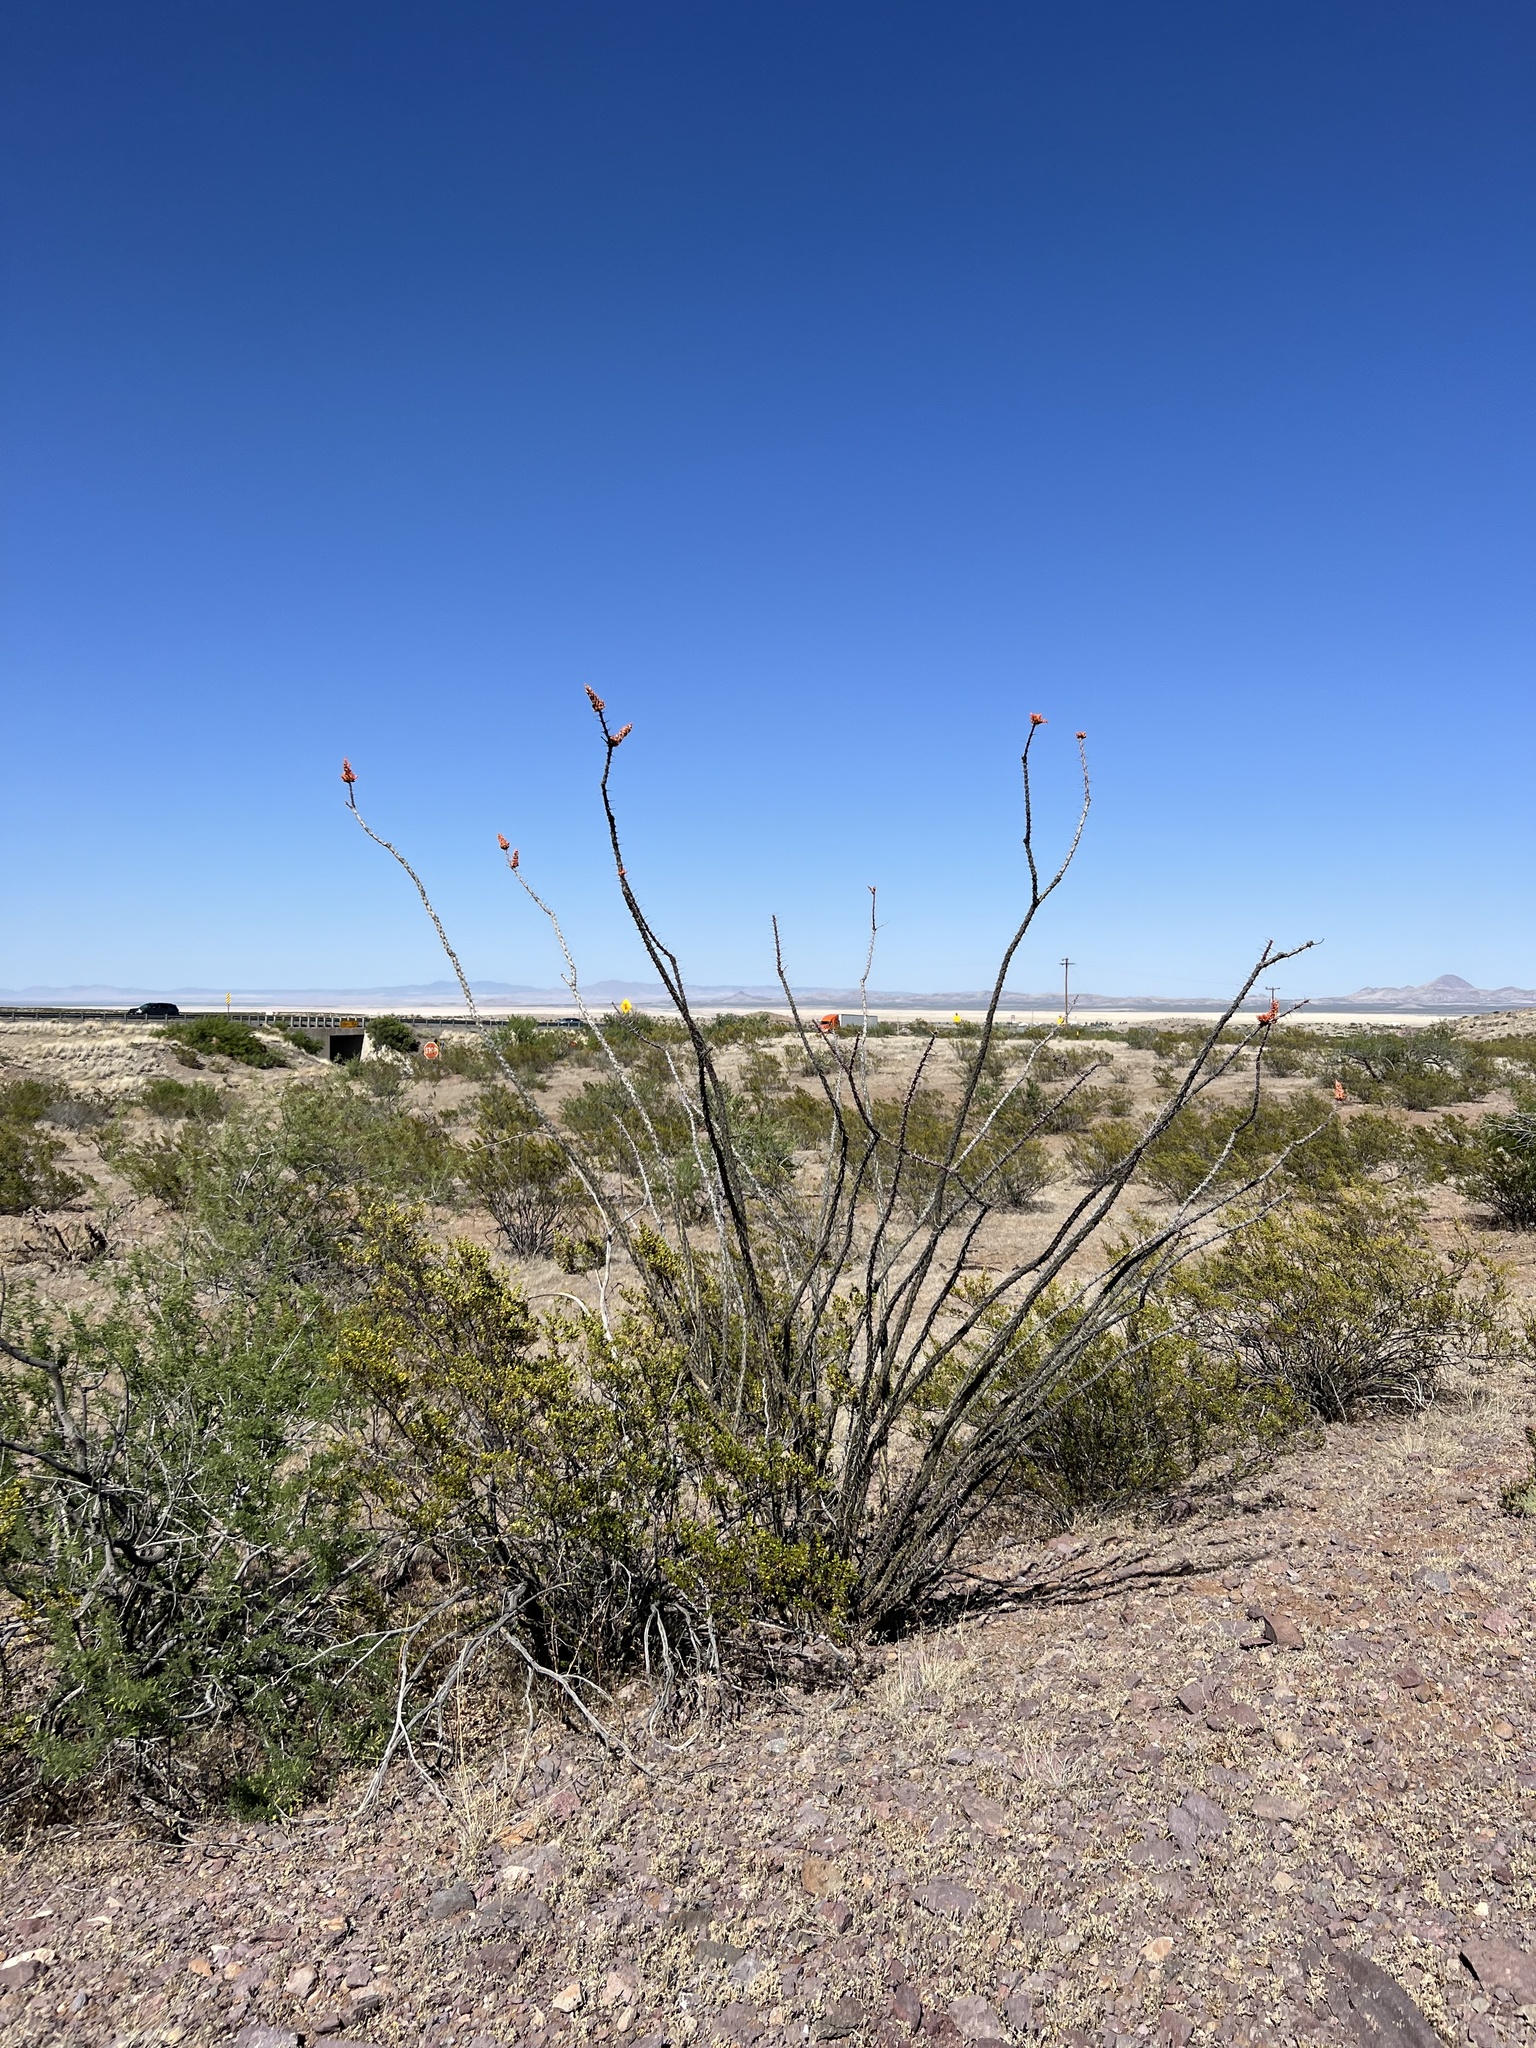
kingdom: Plantae
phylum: Tracheophyta
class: Magnoliopsida
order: Ericales
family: Fouquieriaceae
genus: Fouquieria
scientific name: Fouquieria splendens
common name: Vine-cactus
